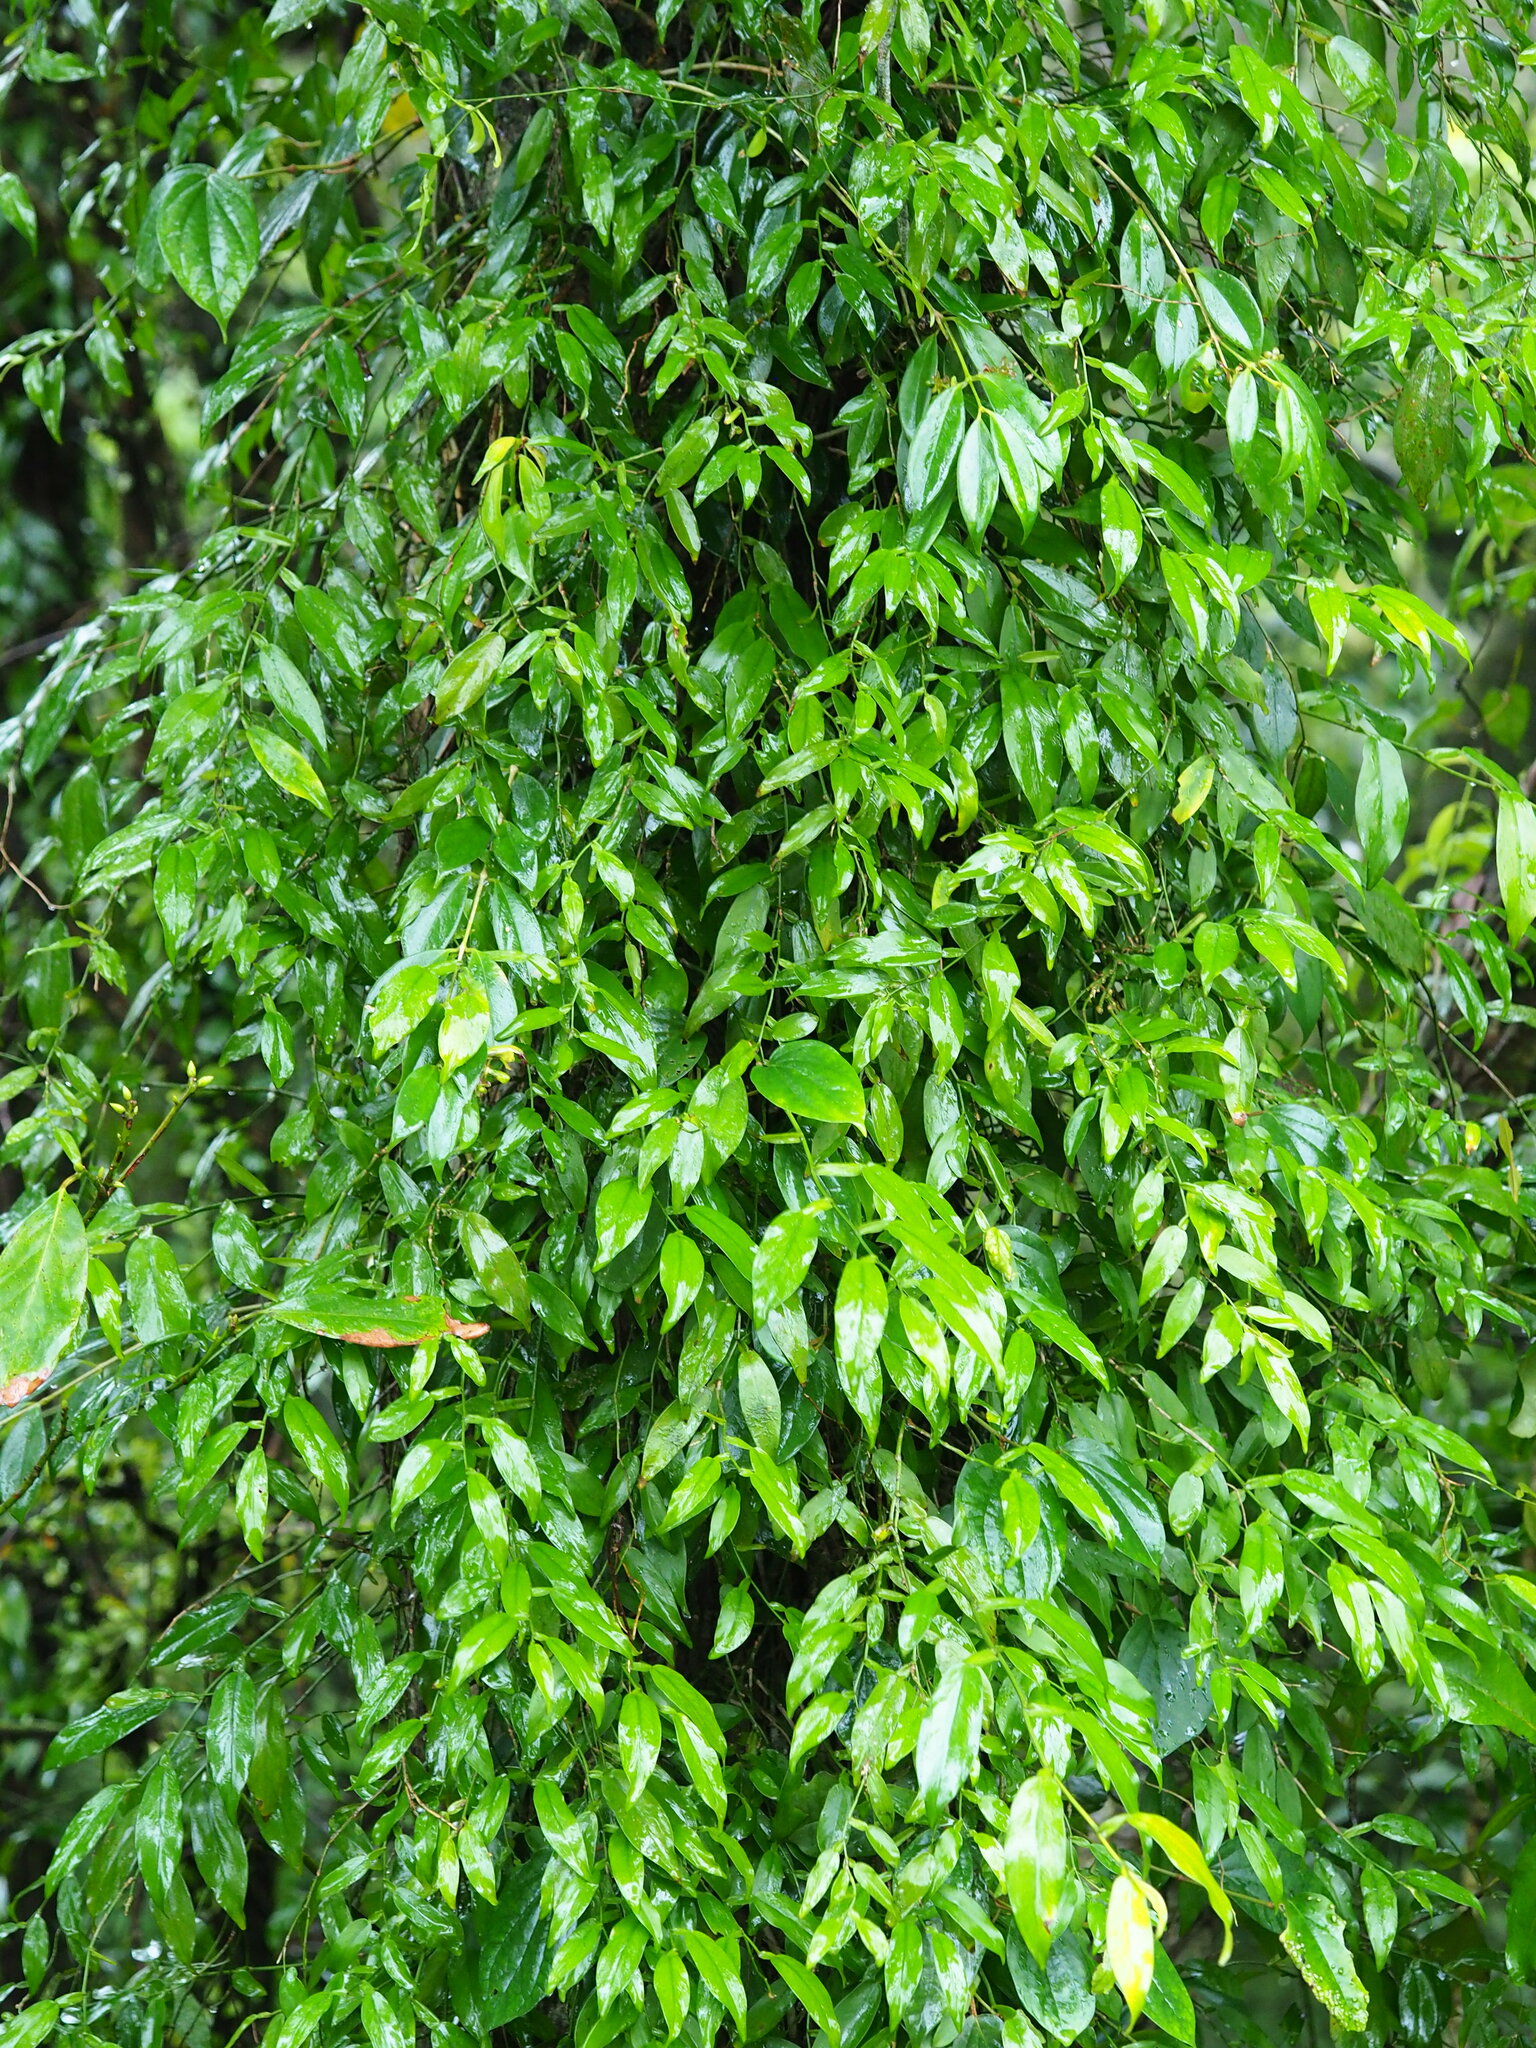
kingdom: Plantae
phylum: Tracheophyta
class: Liliopsida
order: Alismatales
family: Araceae
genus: Pothos
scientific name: Pothos chinensis
